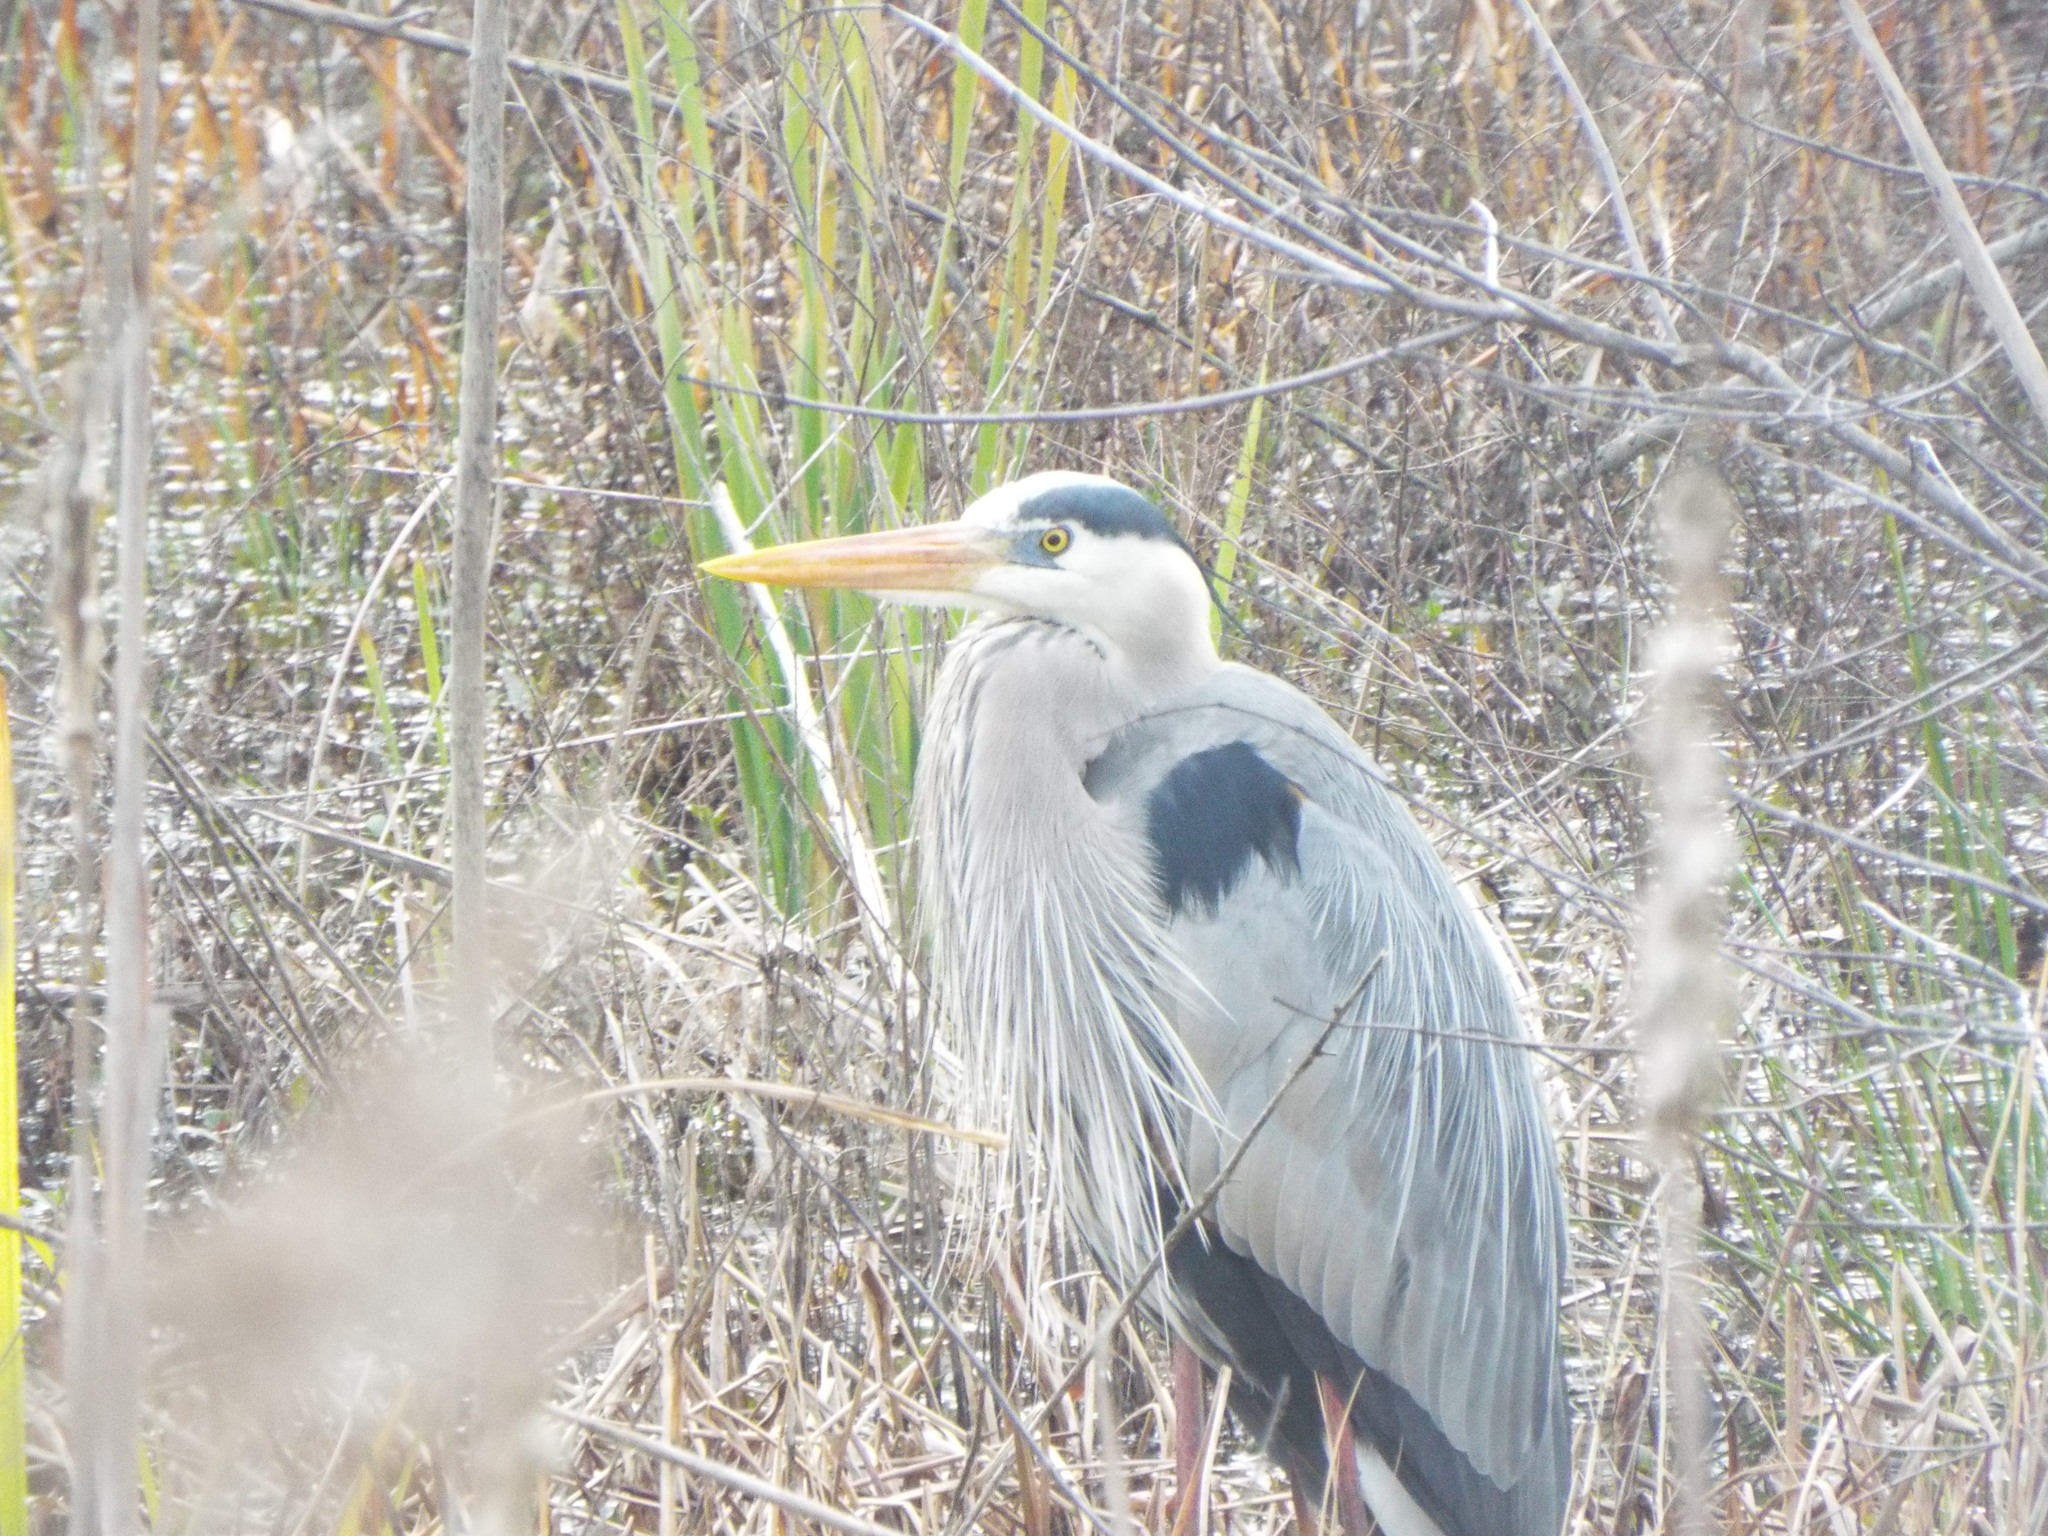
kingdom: Animalia
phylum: Chordata
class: Aves
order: Pelecaniformes
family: Ardeidae
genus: Ardea
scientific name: Ardea herodias
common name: Great blue heron
